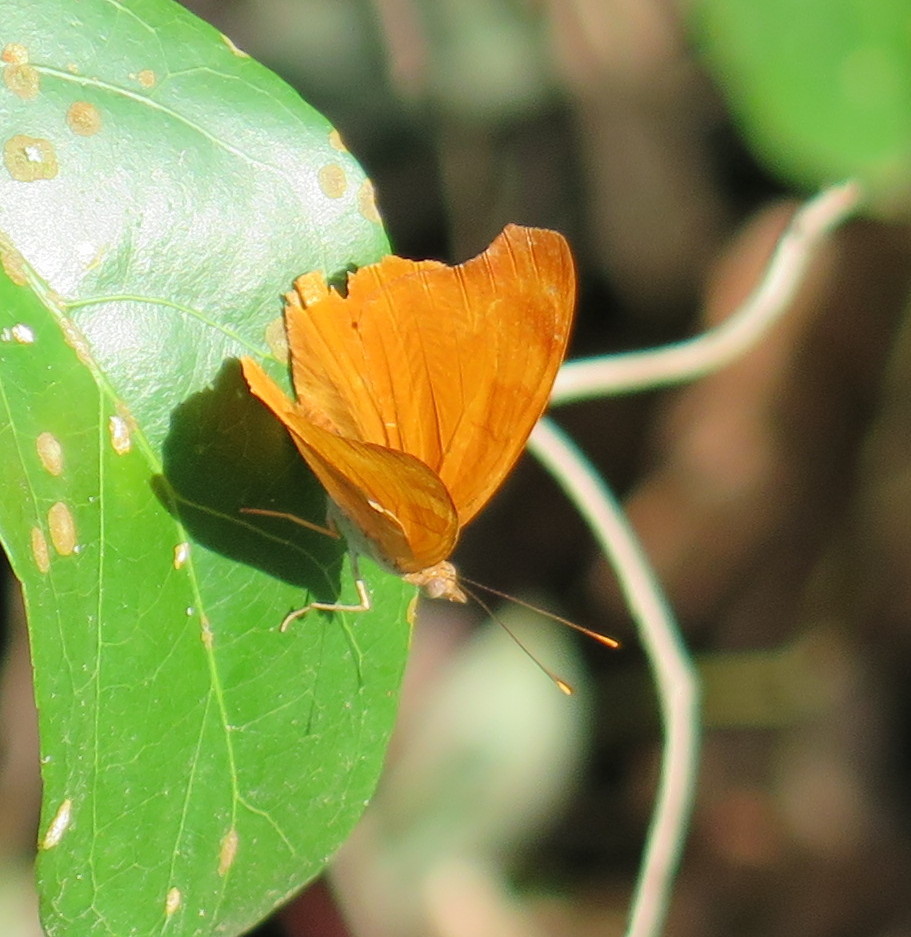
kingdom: Animalia
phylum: Arthropoda
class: Insecta
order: Lepidoptera
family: Nymphalidae
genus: Temenis
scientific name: Temenis laothoe
